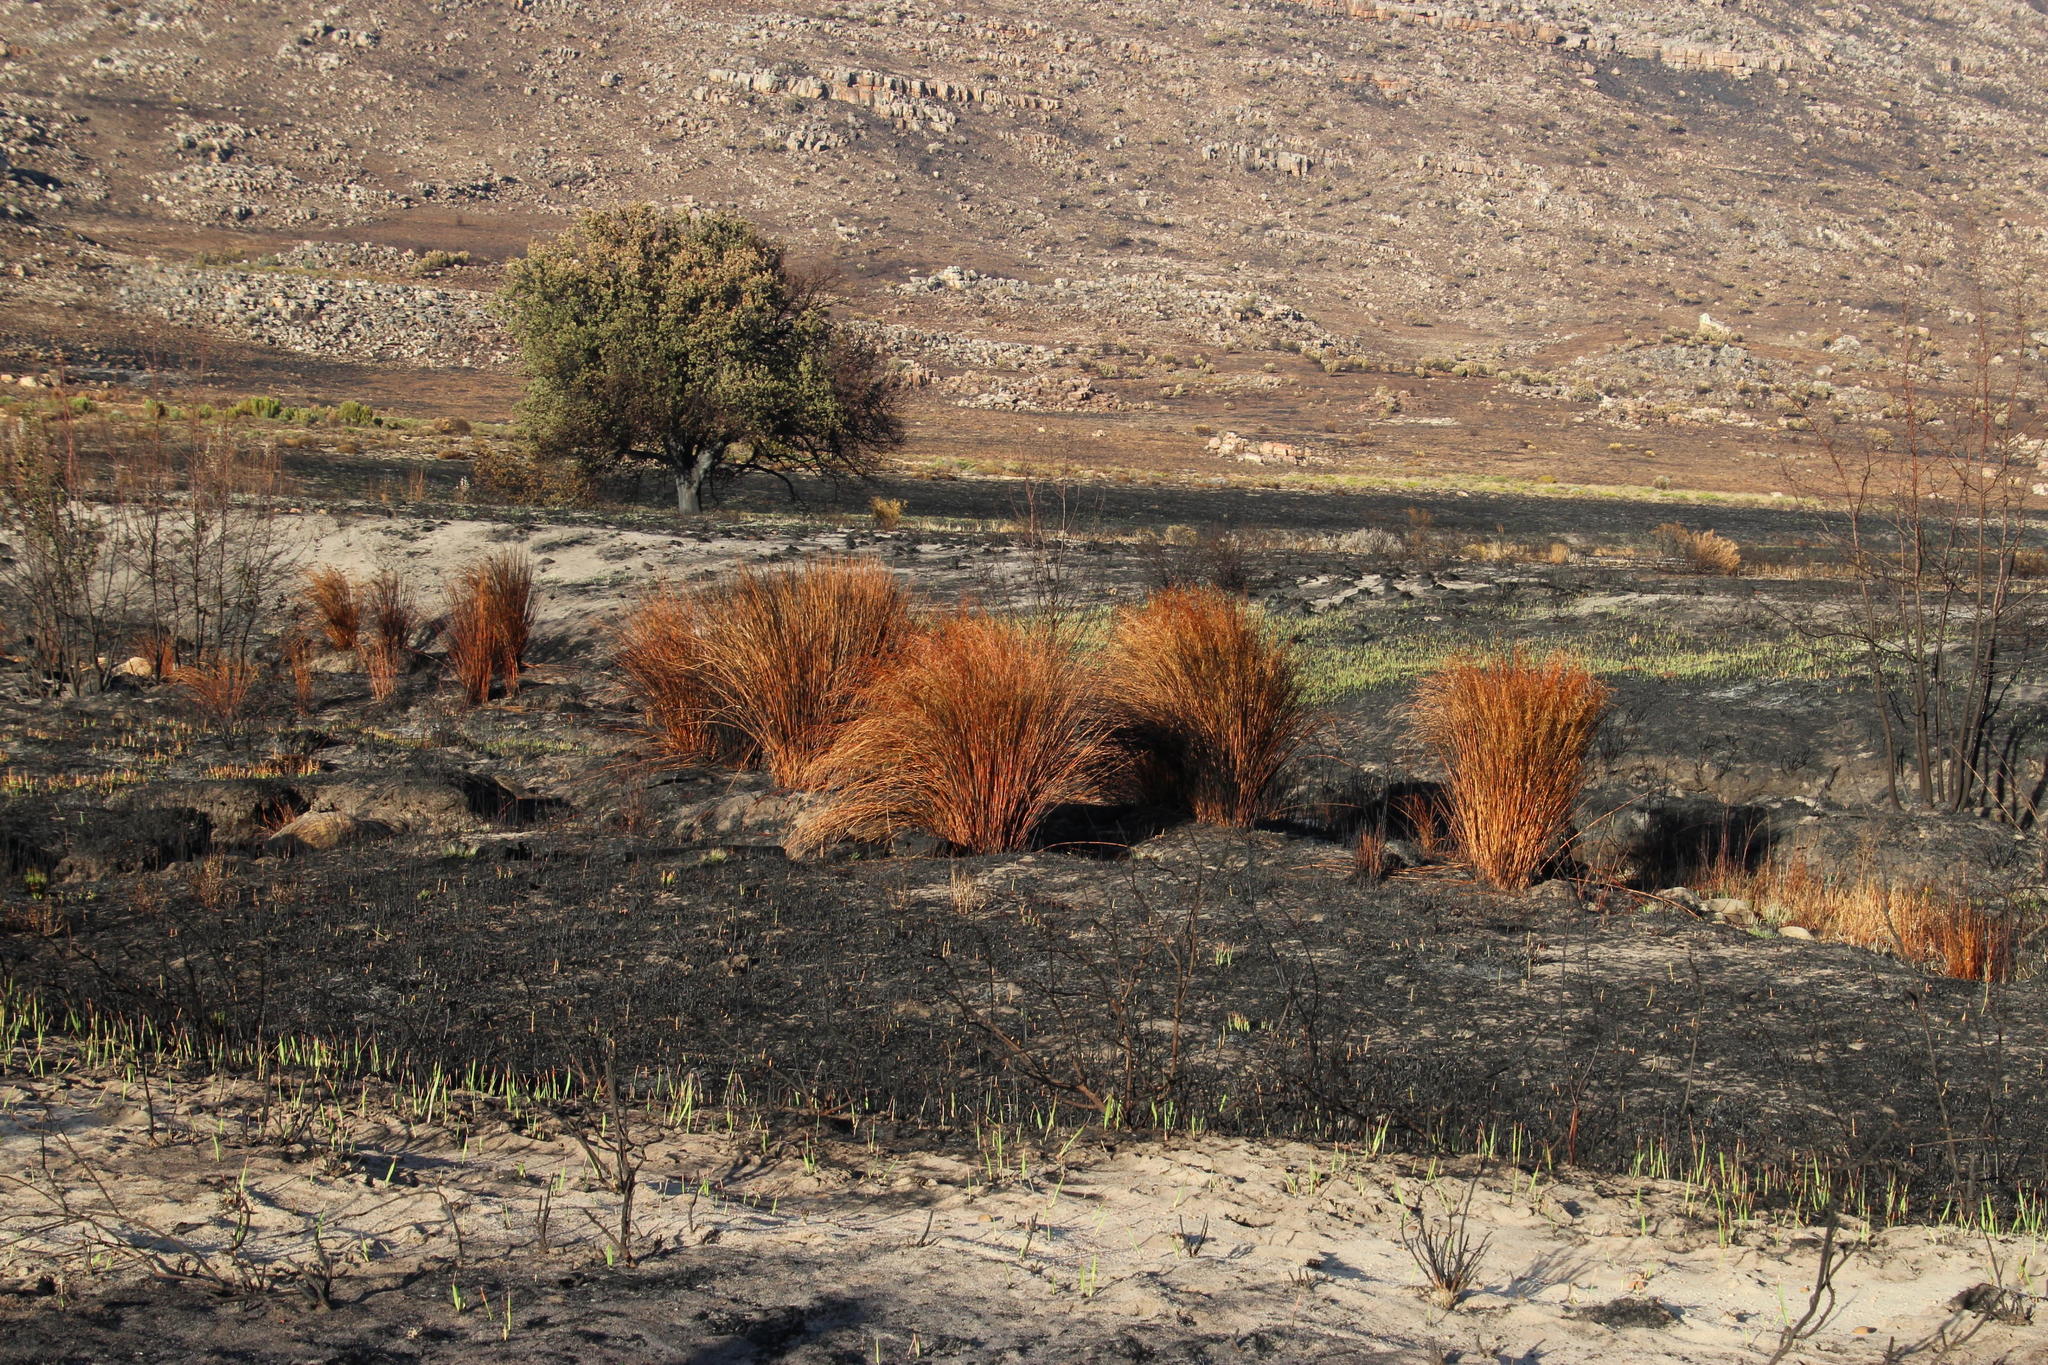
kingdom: Plantae
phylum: Tracheophyta
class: Liliopsida
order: Poales
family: Restionaceae
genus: Cannomois
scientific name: Cannomois robusta
